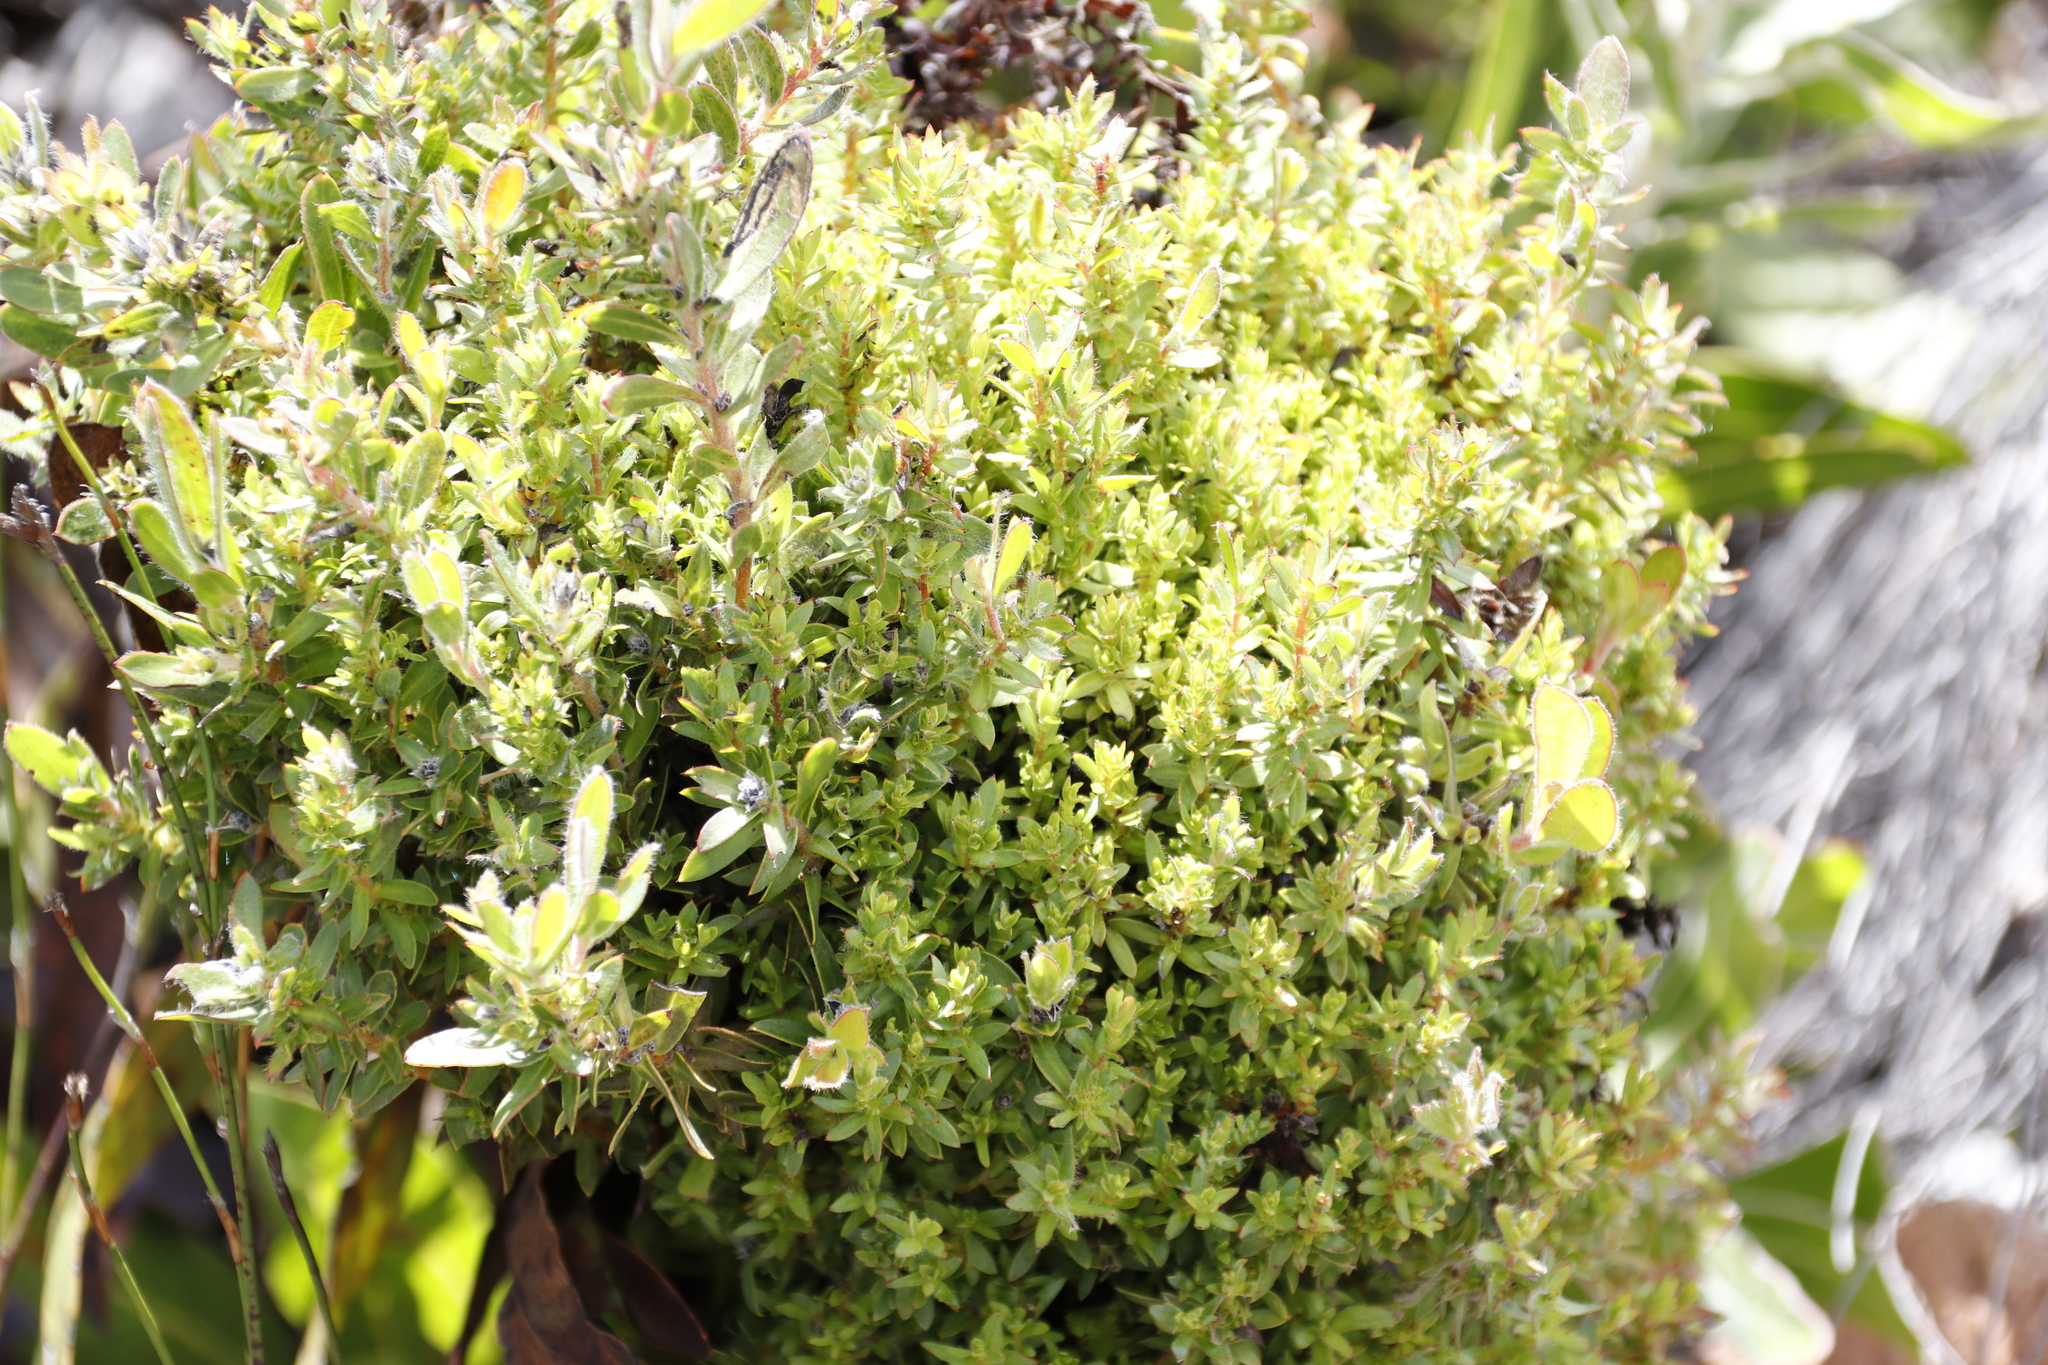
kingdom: Bacteria
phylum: Firmicutes
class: Bacilli
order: Acholeplasmatales
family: Acholeplasmataceae
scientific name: Acholeplasmataceae
